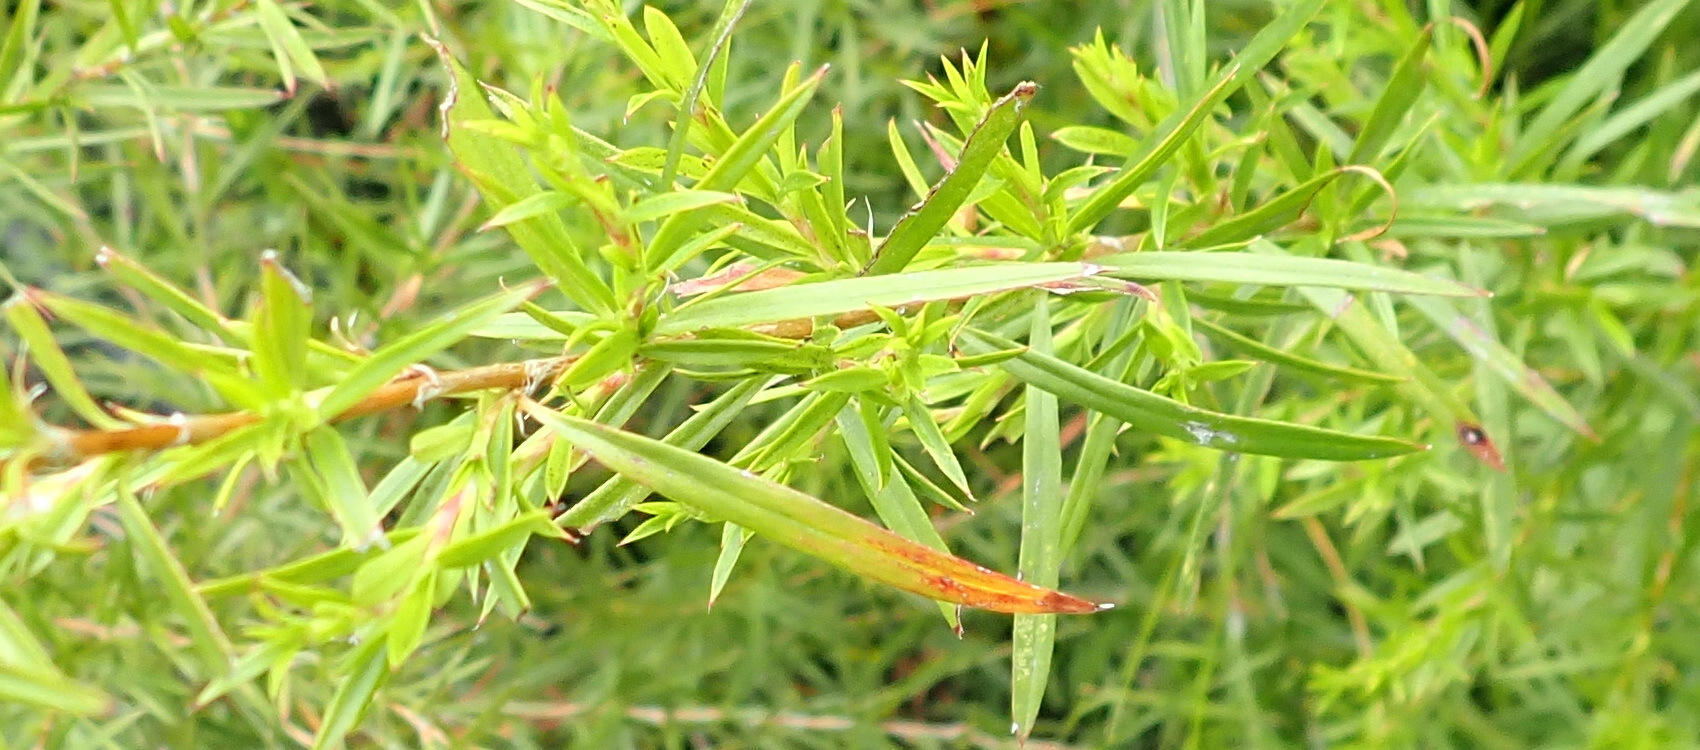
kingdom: Plantae
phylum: Tracheophyta
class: Magnoliopsida
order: Rosales
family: Rosaceae
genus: Cliffortia
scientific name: Cliffortia strobilifera
